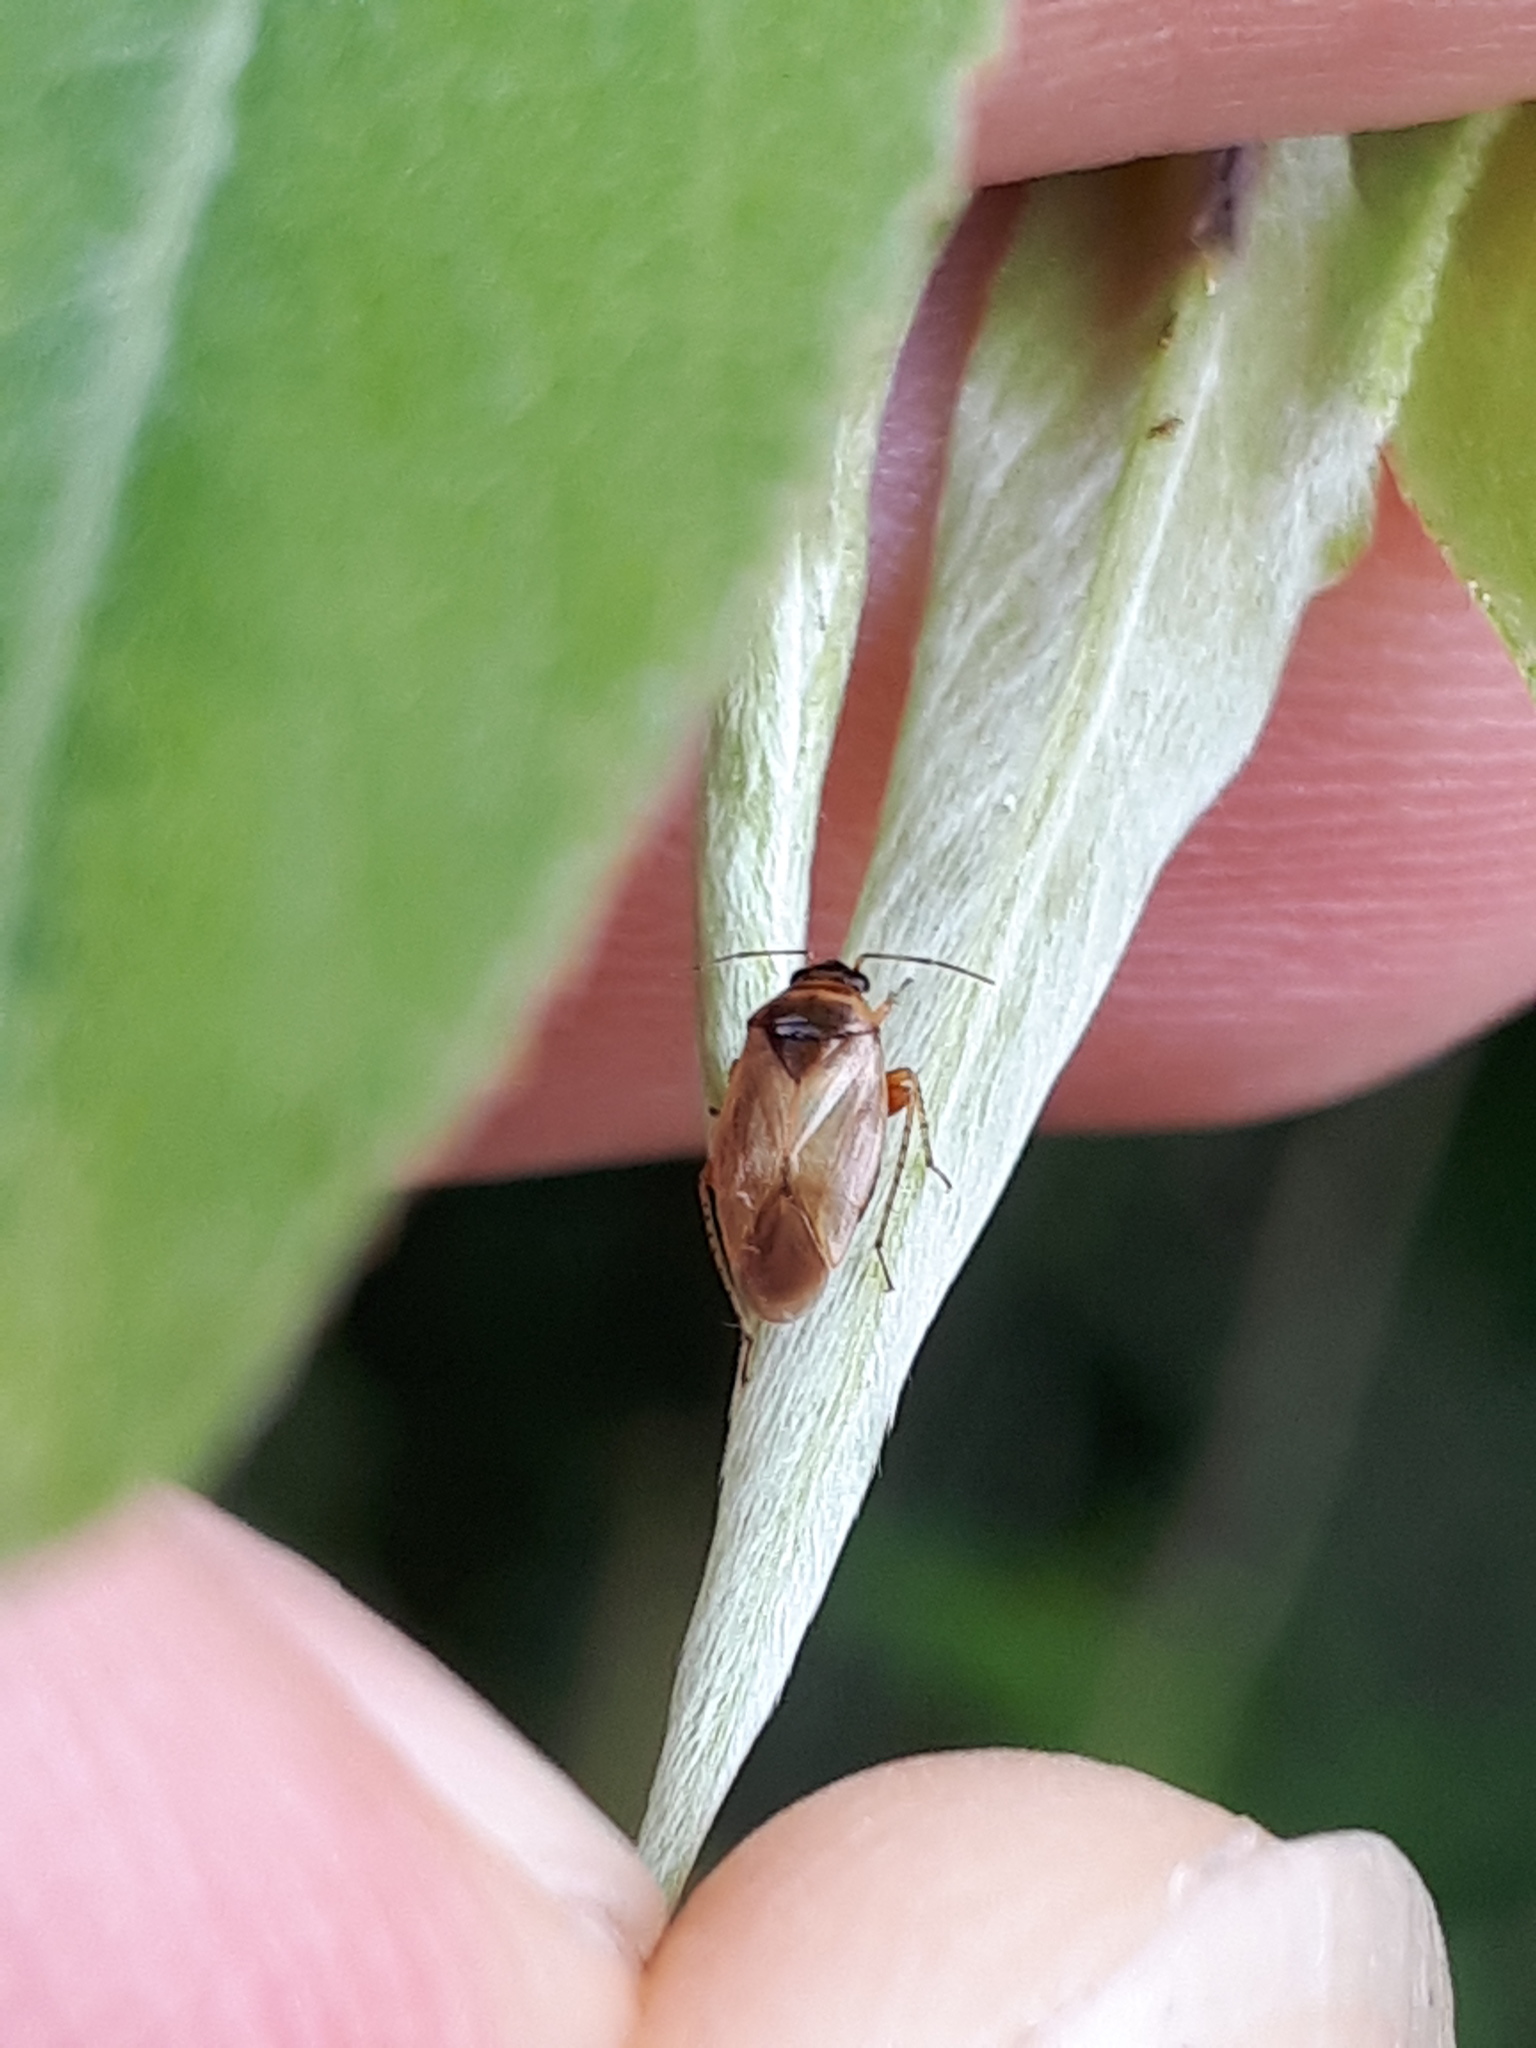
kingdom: Animalia
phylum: Arthropoda
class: Insecta
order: Hemiptera
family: Miridae
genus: Salicarus
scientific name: Salicarus roseri
